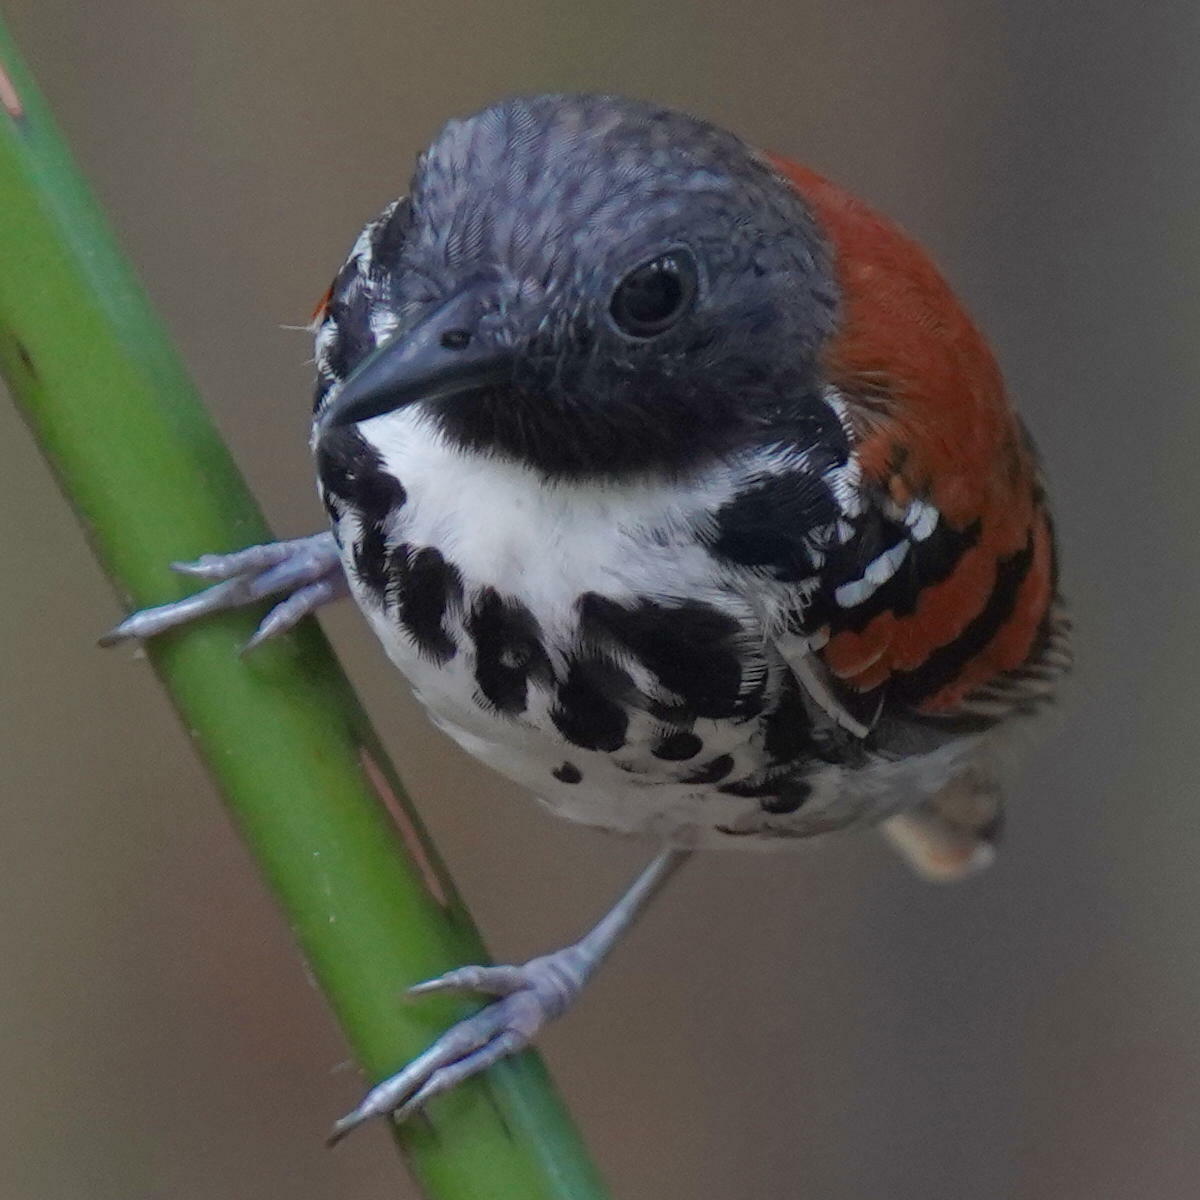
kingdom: Animalia
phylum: Chordata
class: Aves
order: Passeriformes
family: Thamnophilidae
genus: Hylophylax
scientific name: Hylophylax naevioides
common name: Spotted antbird
